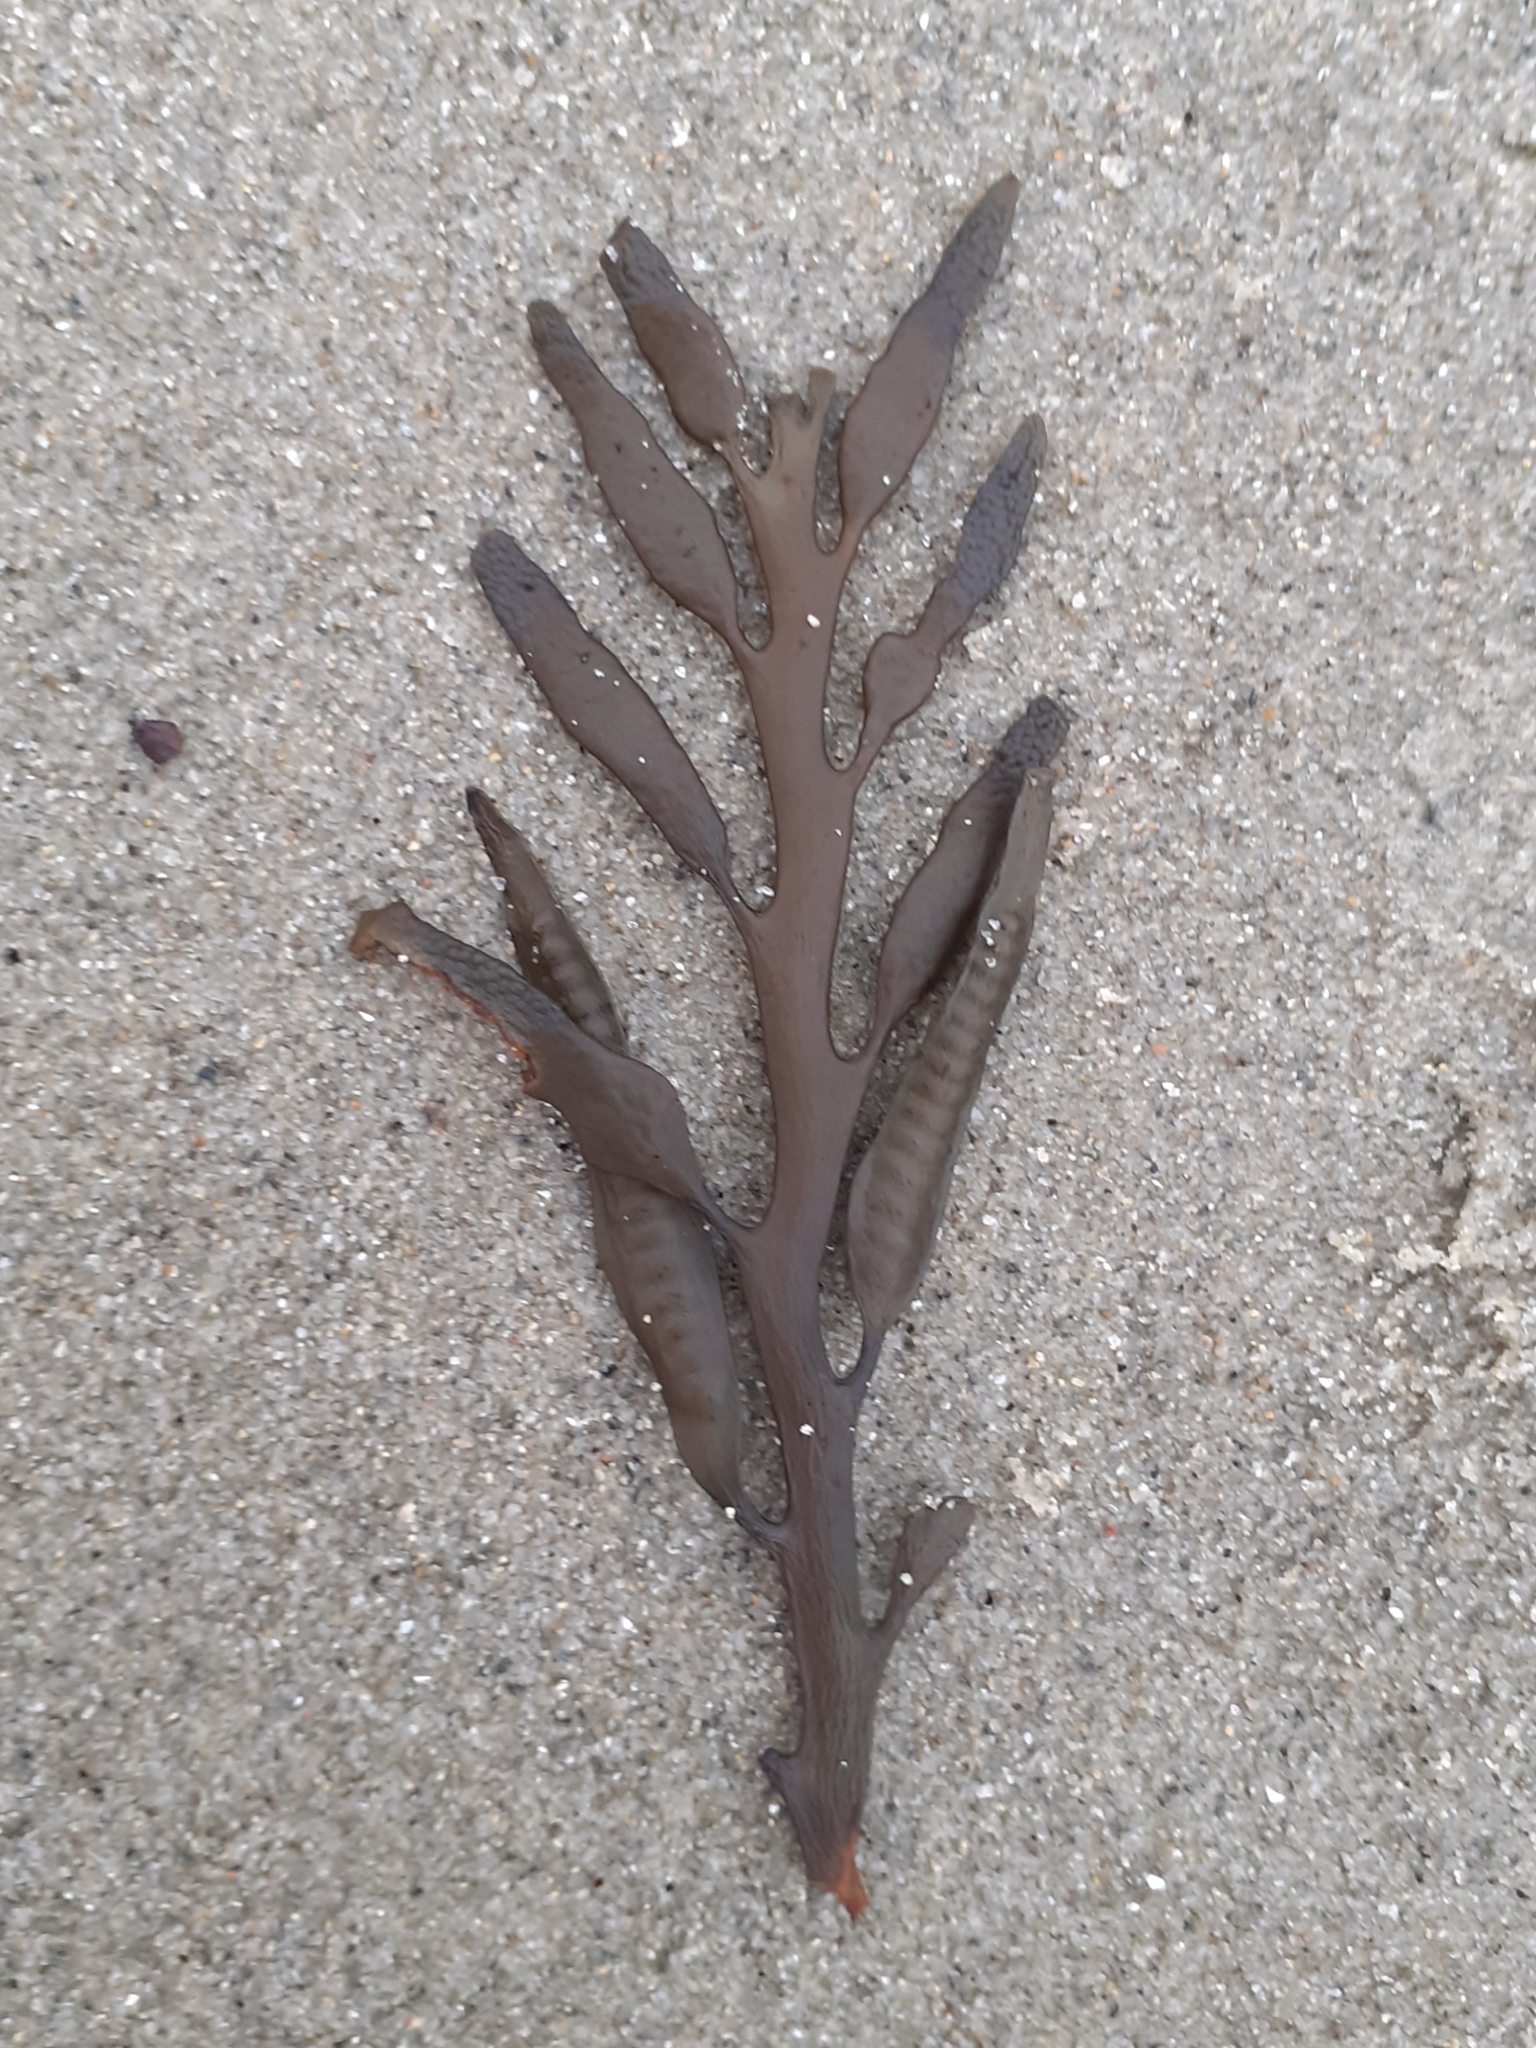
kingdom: Chromista
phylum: Ochrophyta
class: Phaeophyceae
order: Fucales
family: Sargassaceae
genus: Halidrys
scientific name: Halidrys siliquosa
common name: Sea oak
